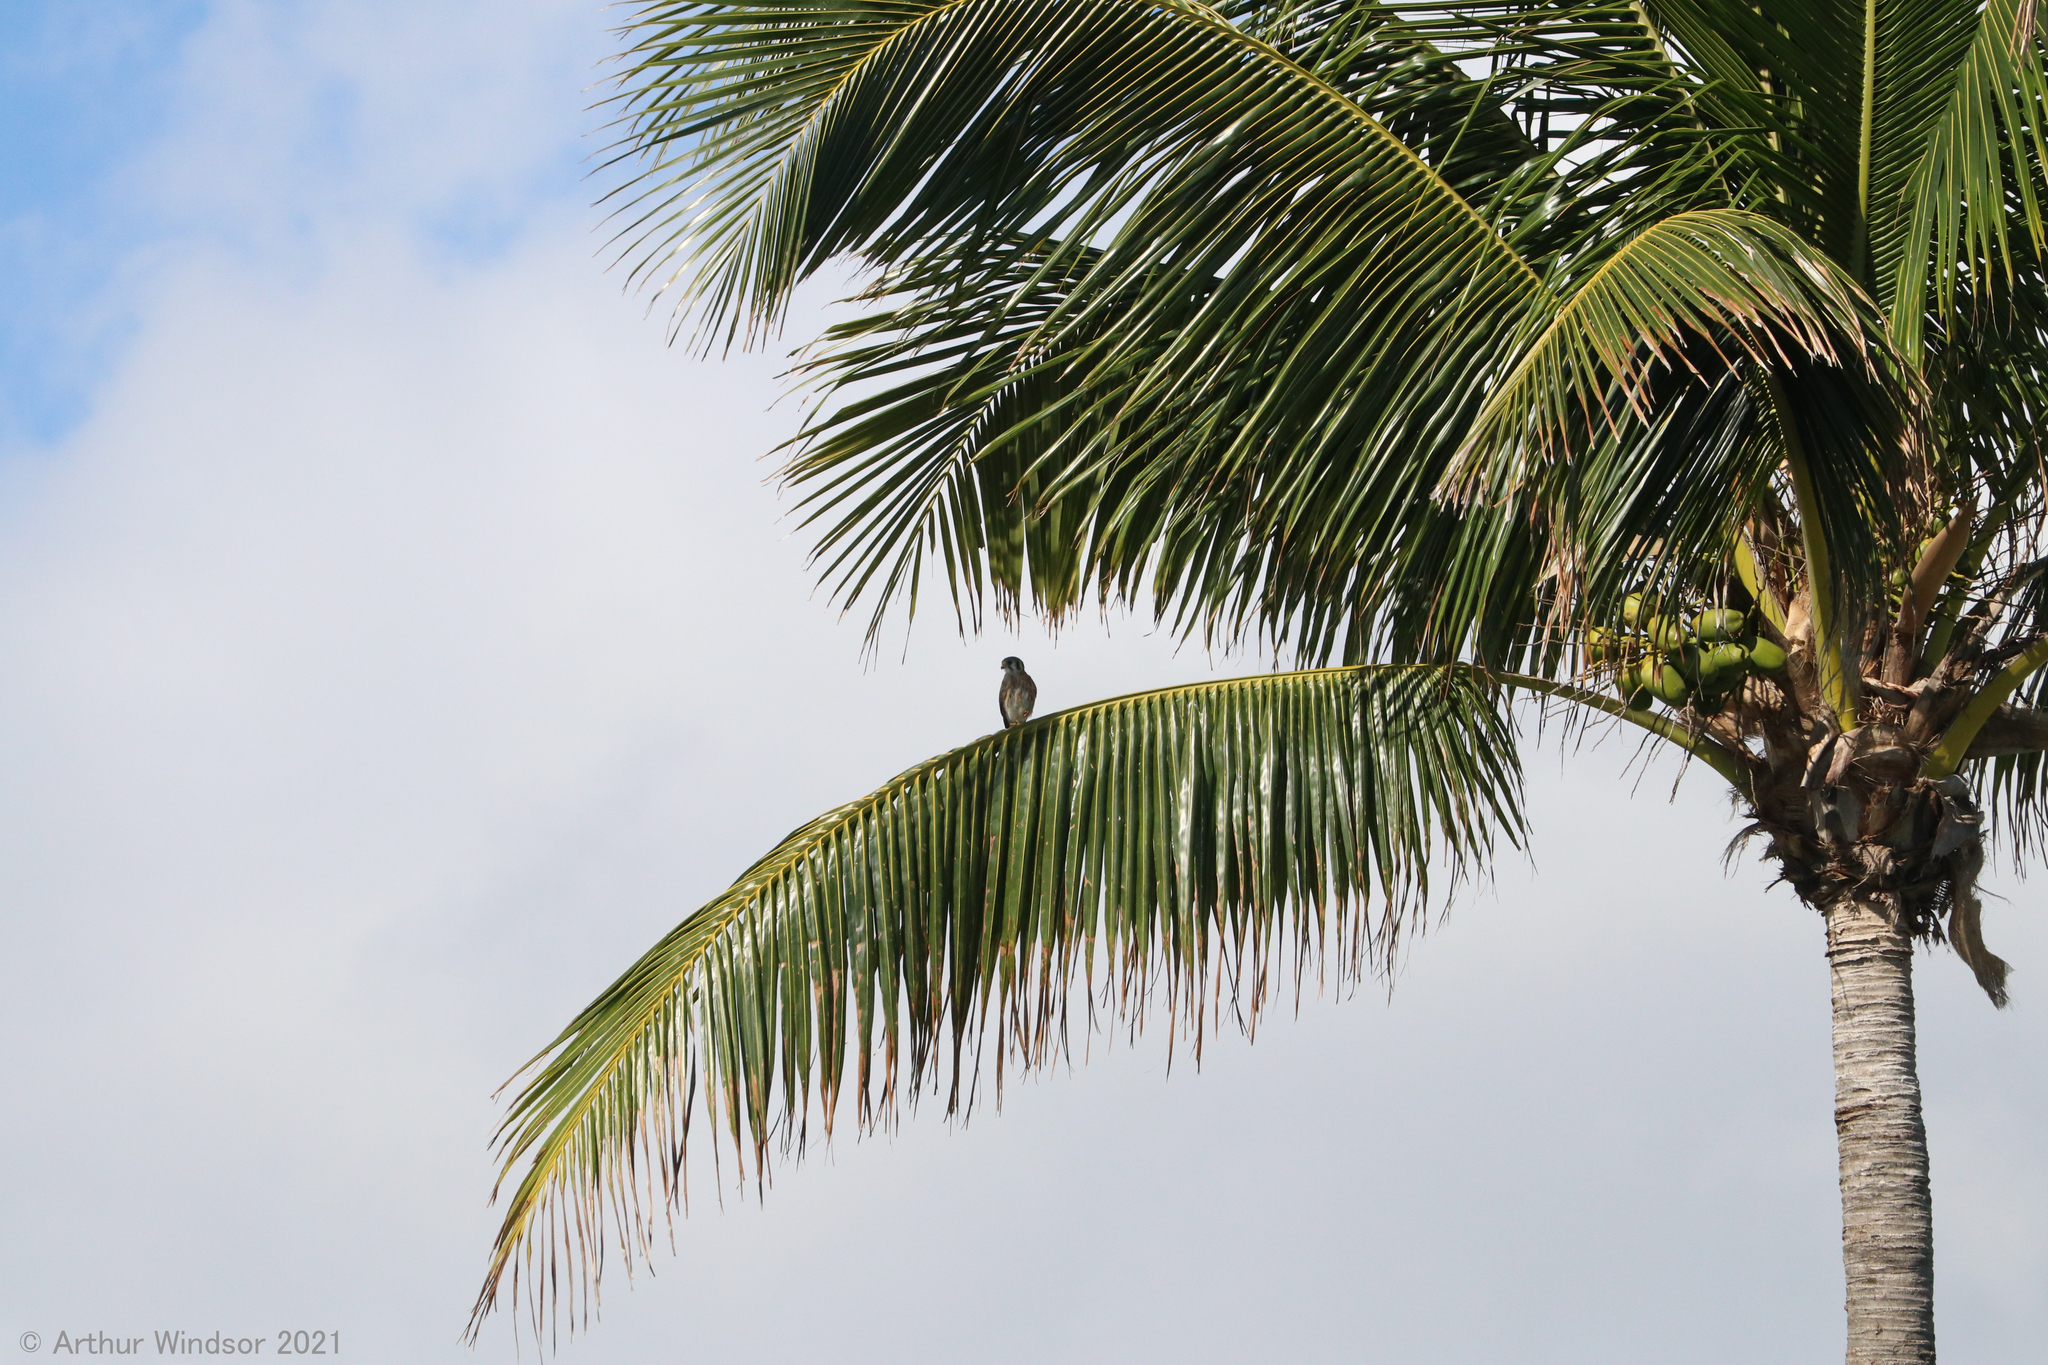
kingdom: Animalia
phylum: Chordata
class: Aves
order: Falconiformes
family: Falconidae
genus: Falco
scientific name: Falco sparverius
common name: American kestrel
